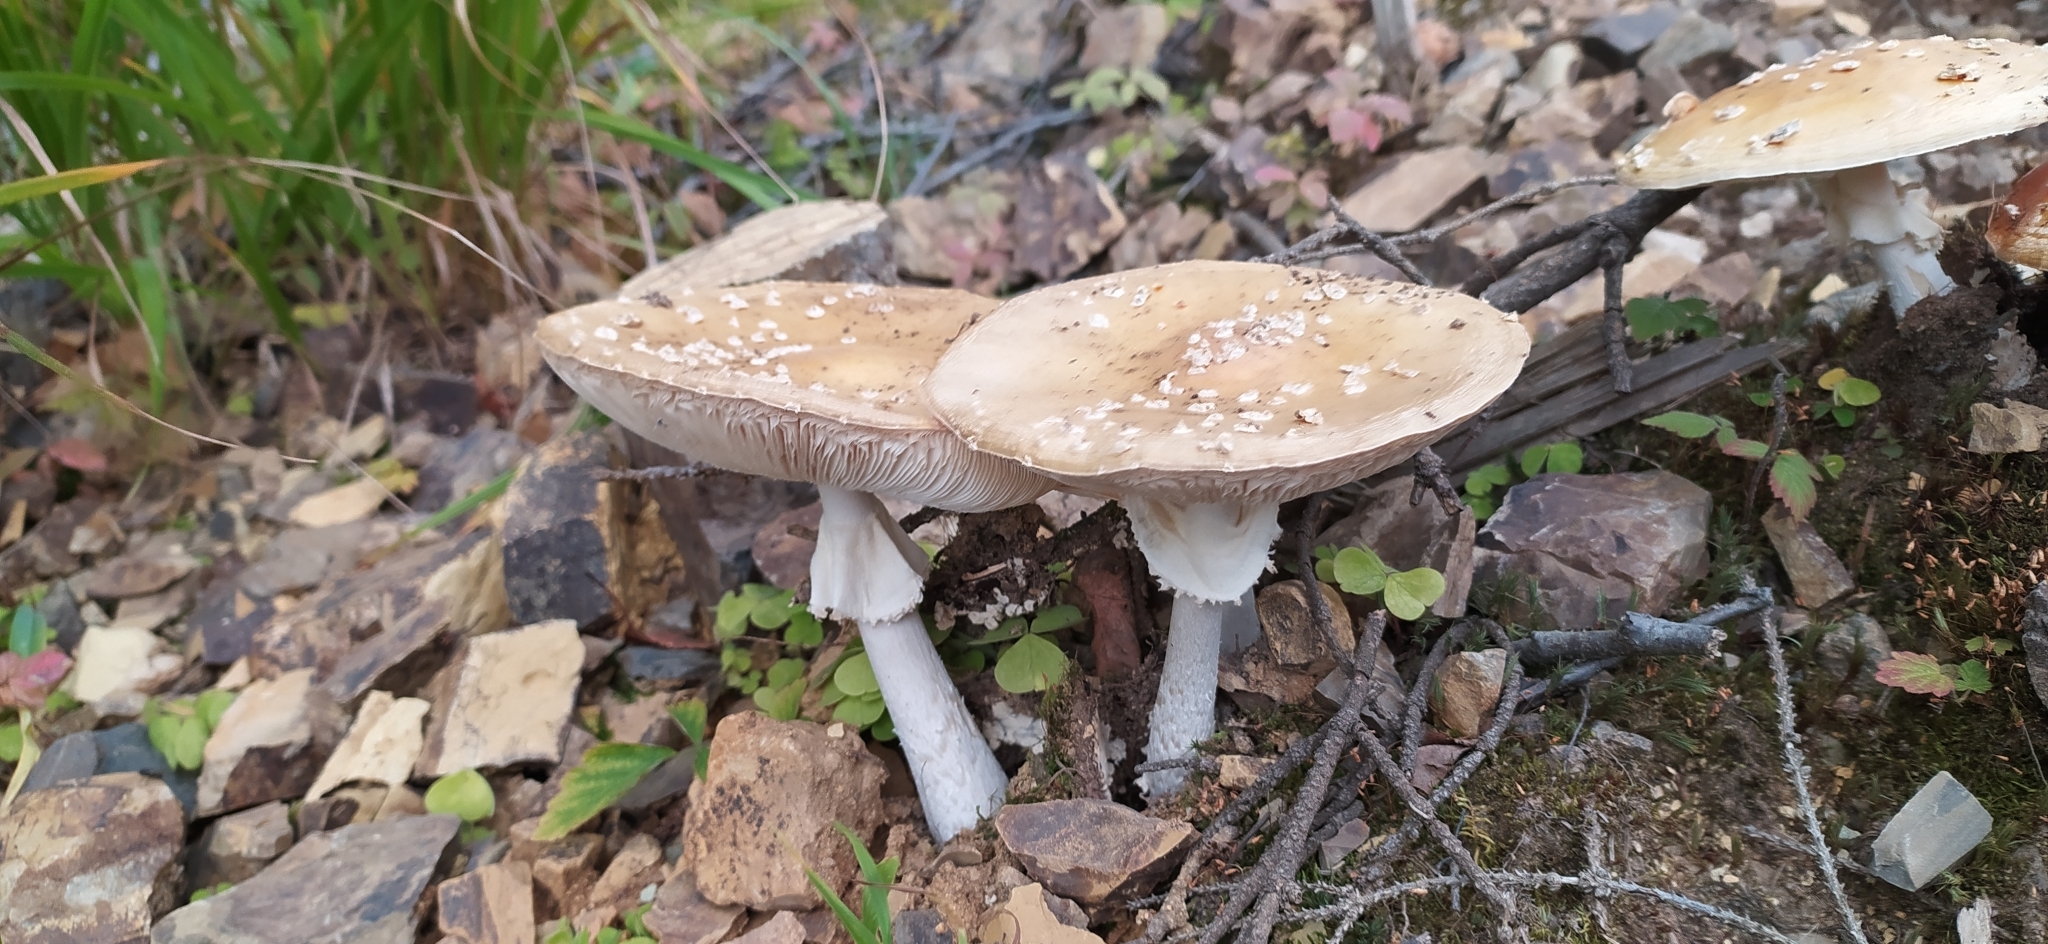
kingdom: Fungi
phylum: Basidiomycota
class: Agaricomycetes
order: Agaricales
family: Amanitaceae
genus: Amanita
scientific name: Amanita muscaria
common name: Fly agaric
